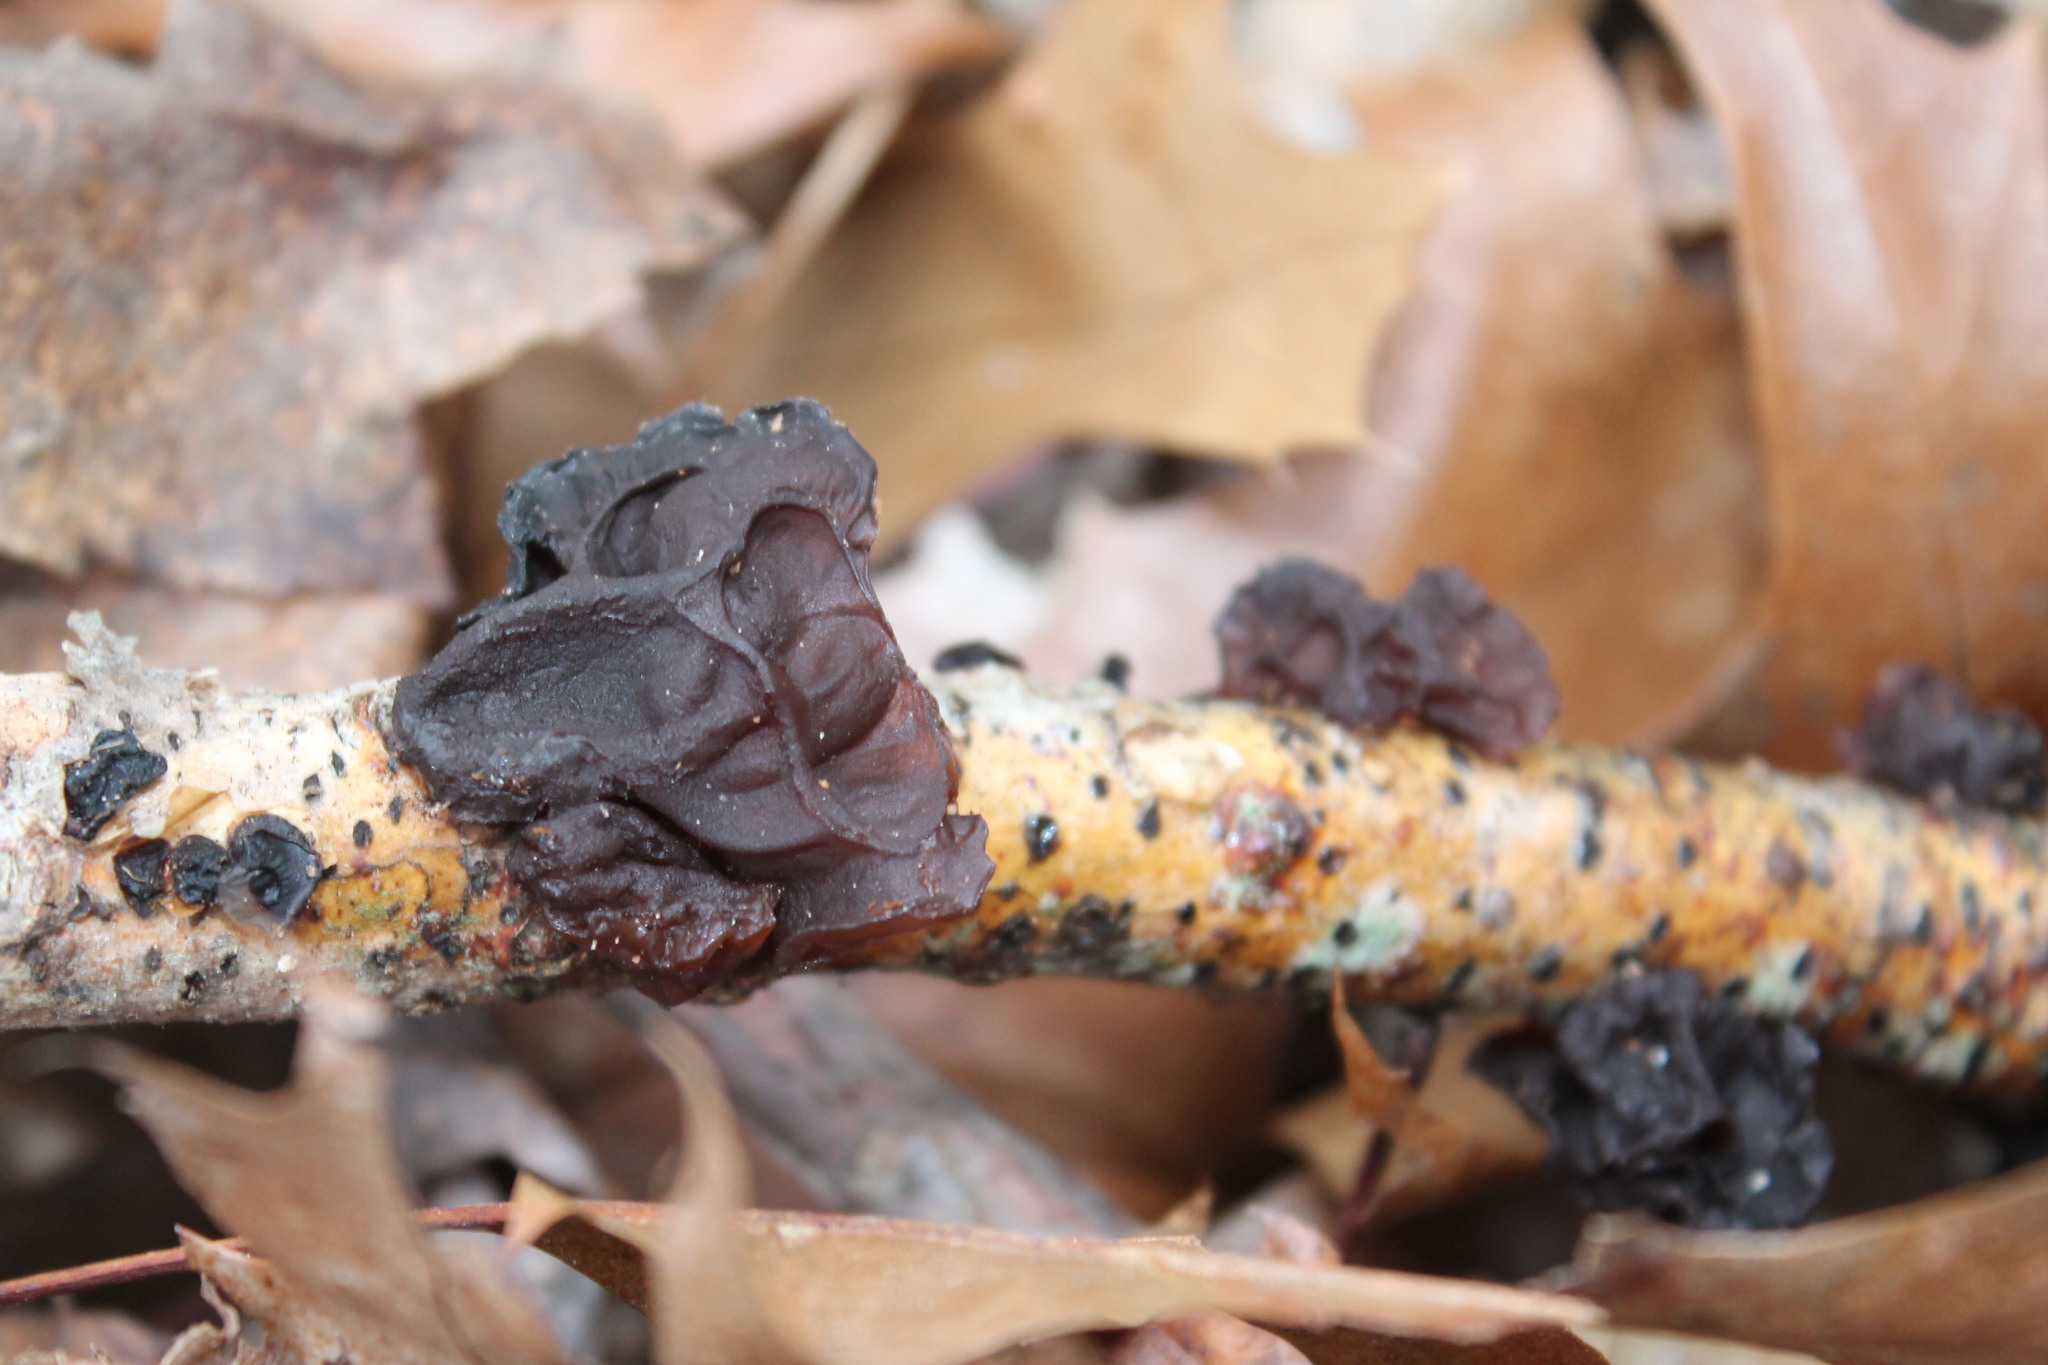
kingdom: Fungi
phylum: Basidiomycota
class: Agaricomycetes
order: Auriculariales
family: Auriculariaceae
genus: Exidia
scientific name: Exidia
